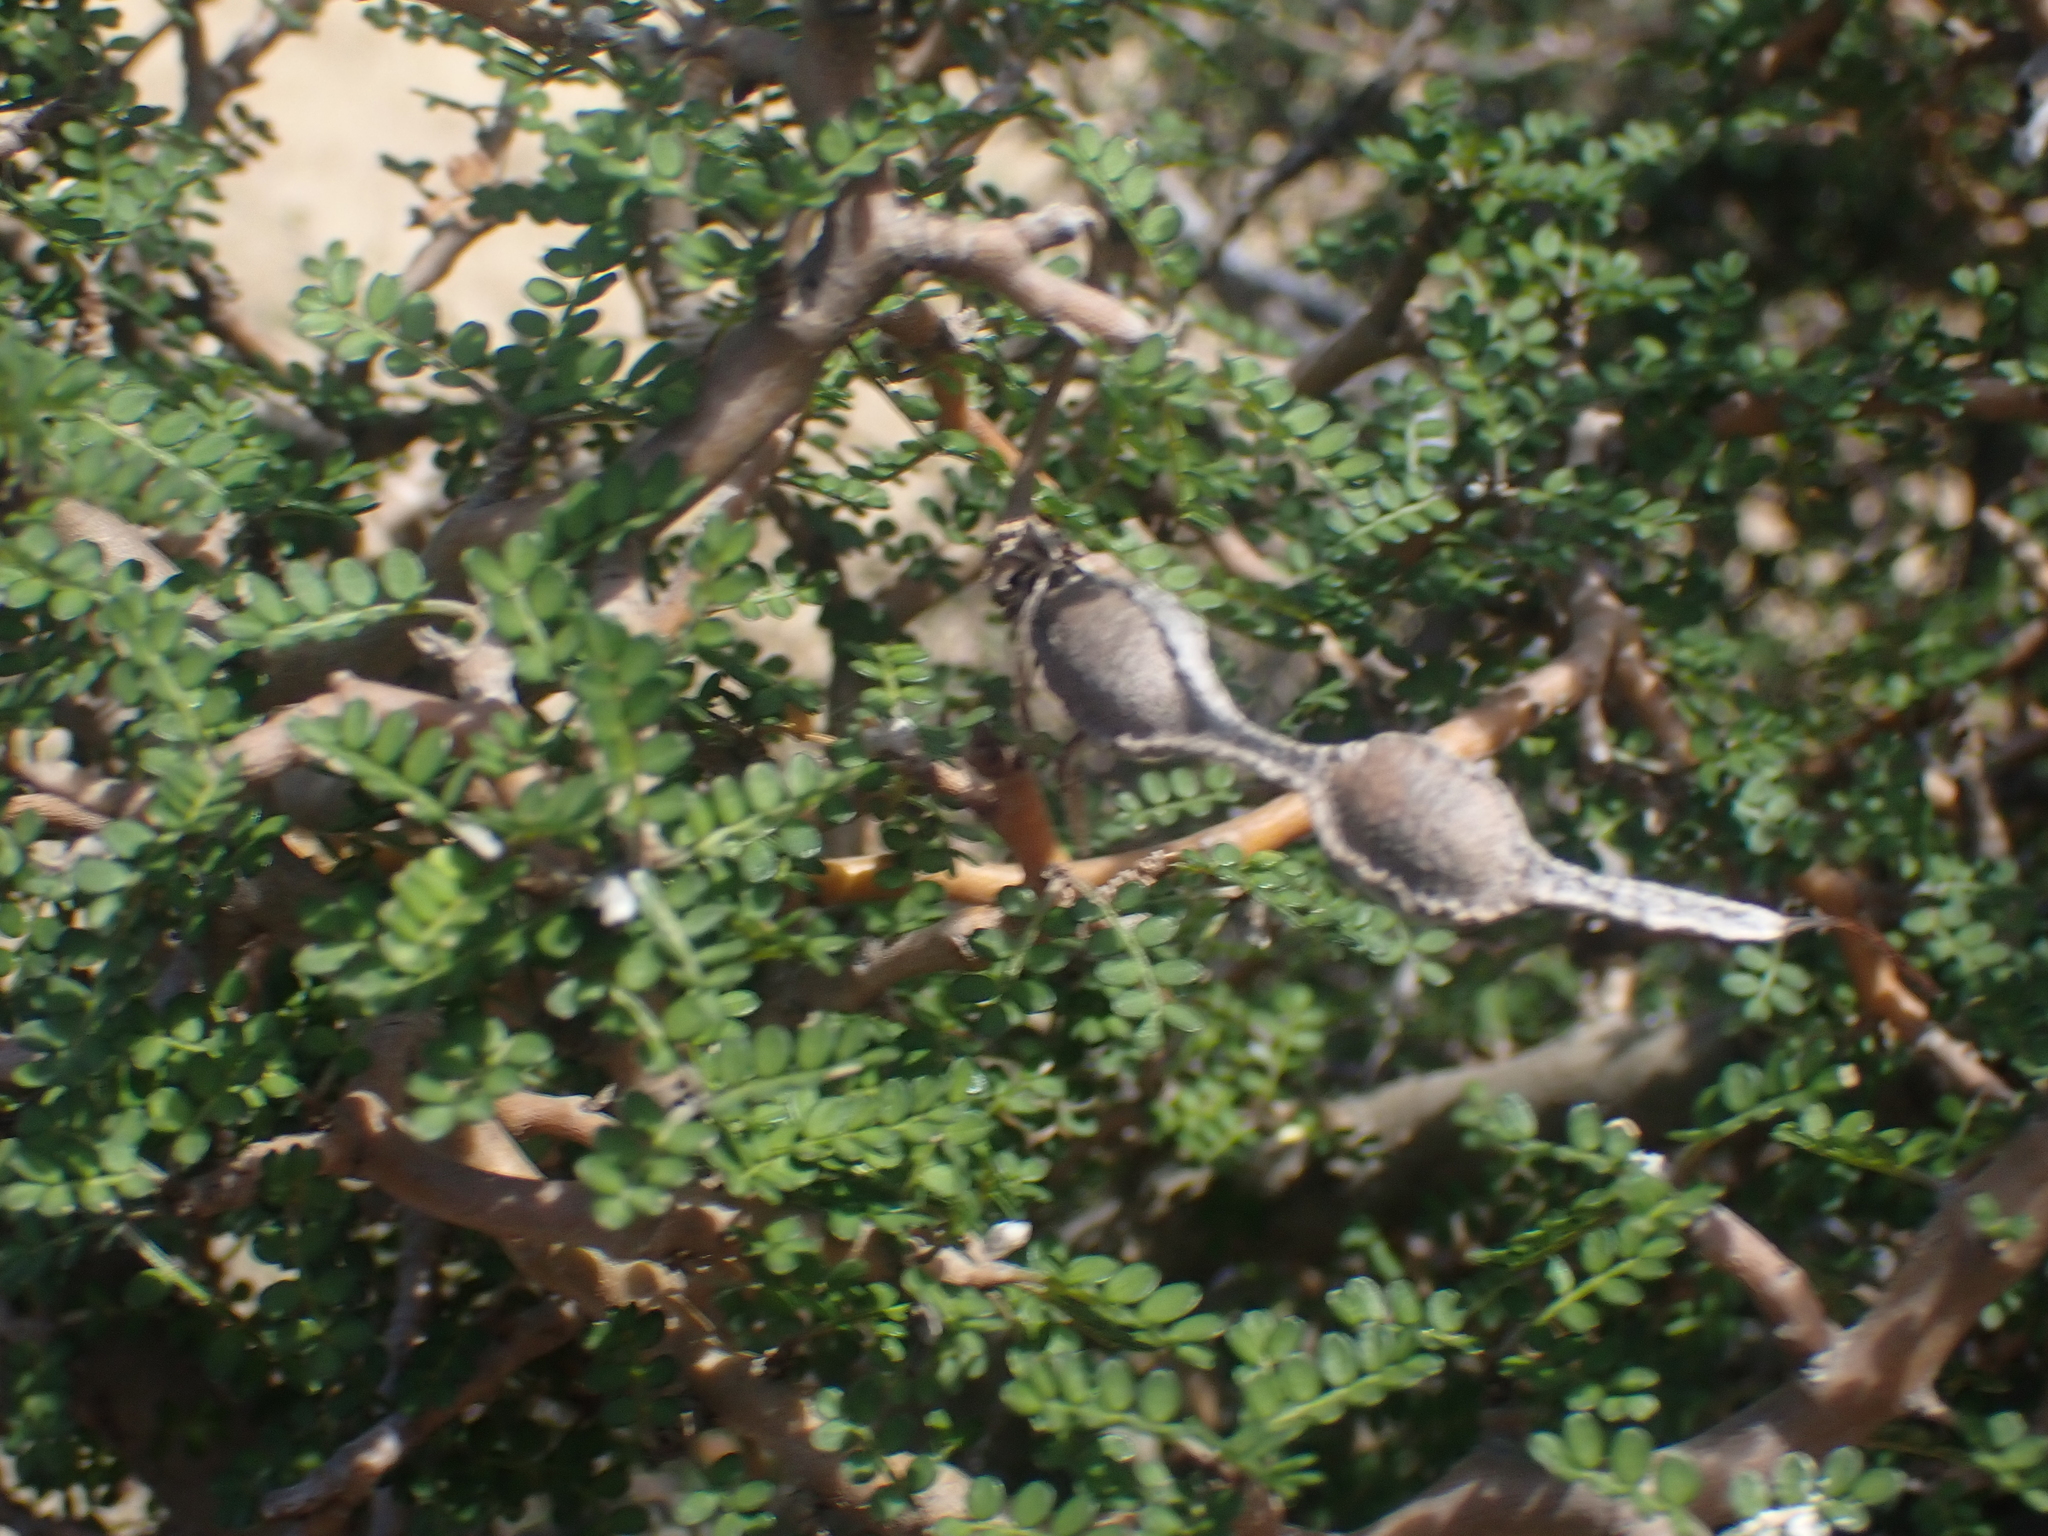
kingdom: Plantae
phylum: Tracheophyta
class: Magnoliopsida
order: Fabales
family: Fabaceae
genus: Sophora
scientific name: Sophora prostrata
